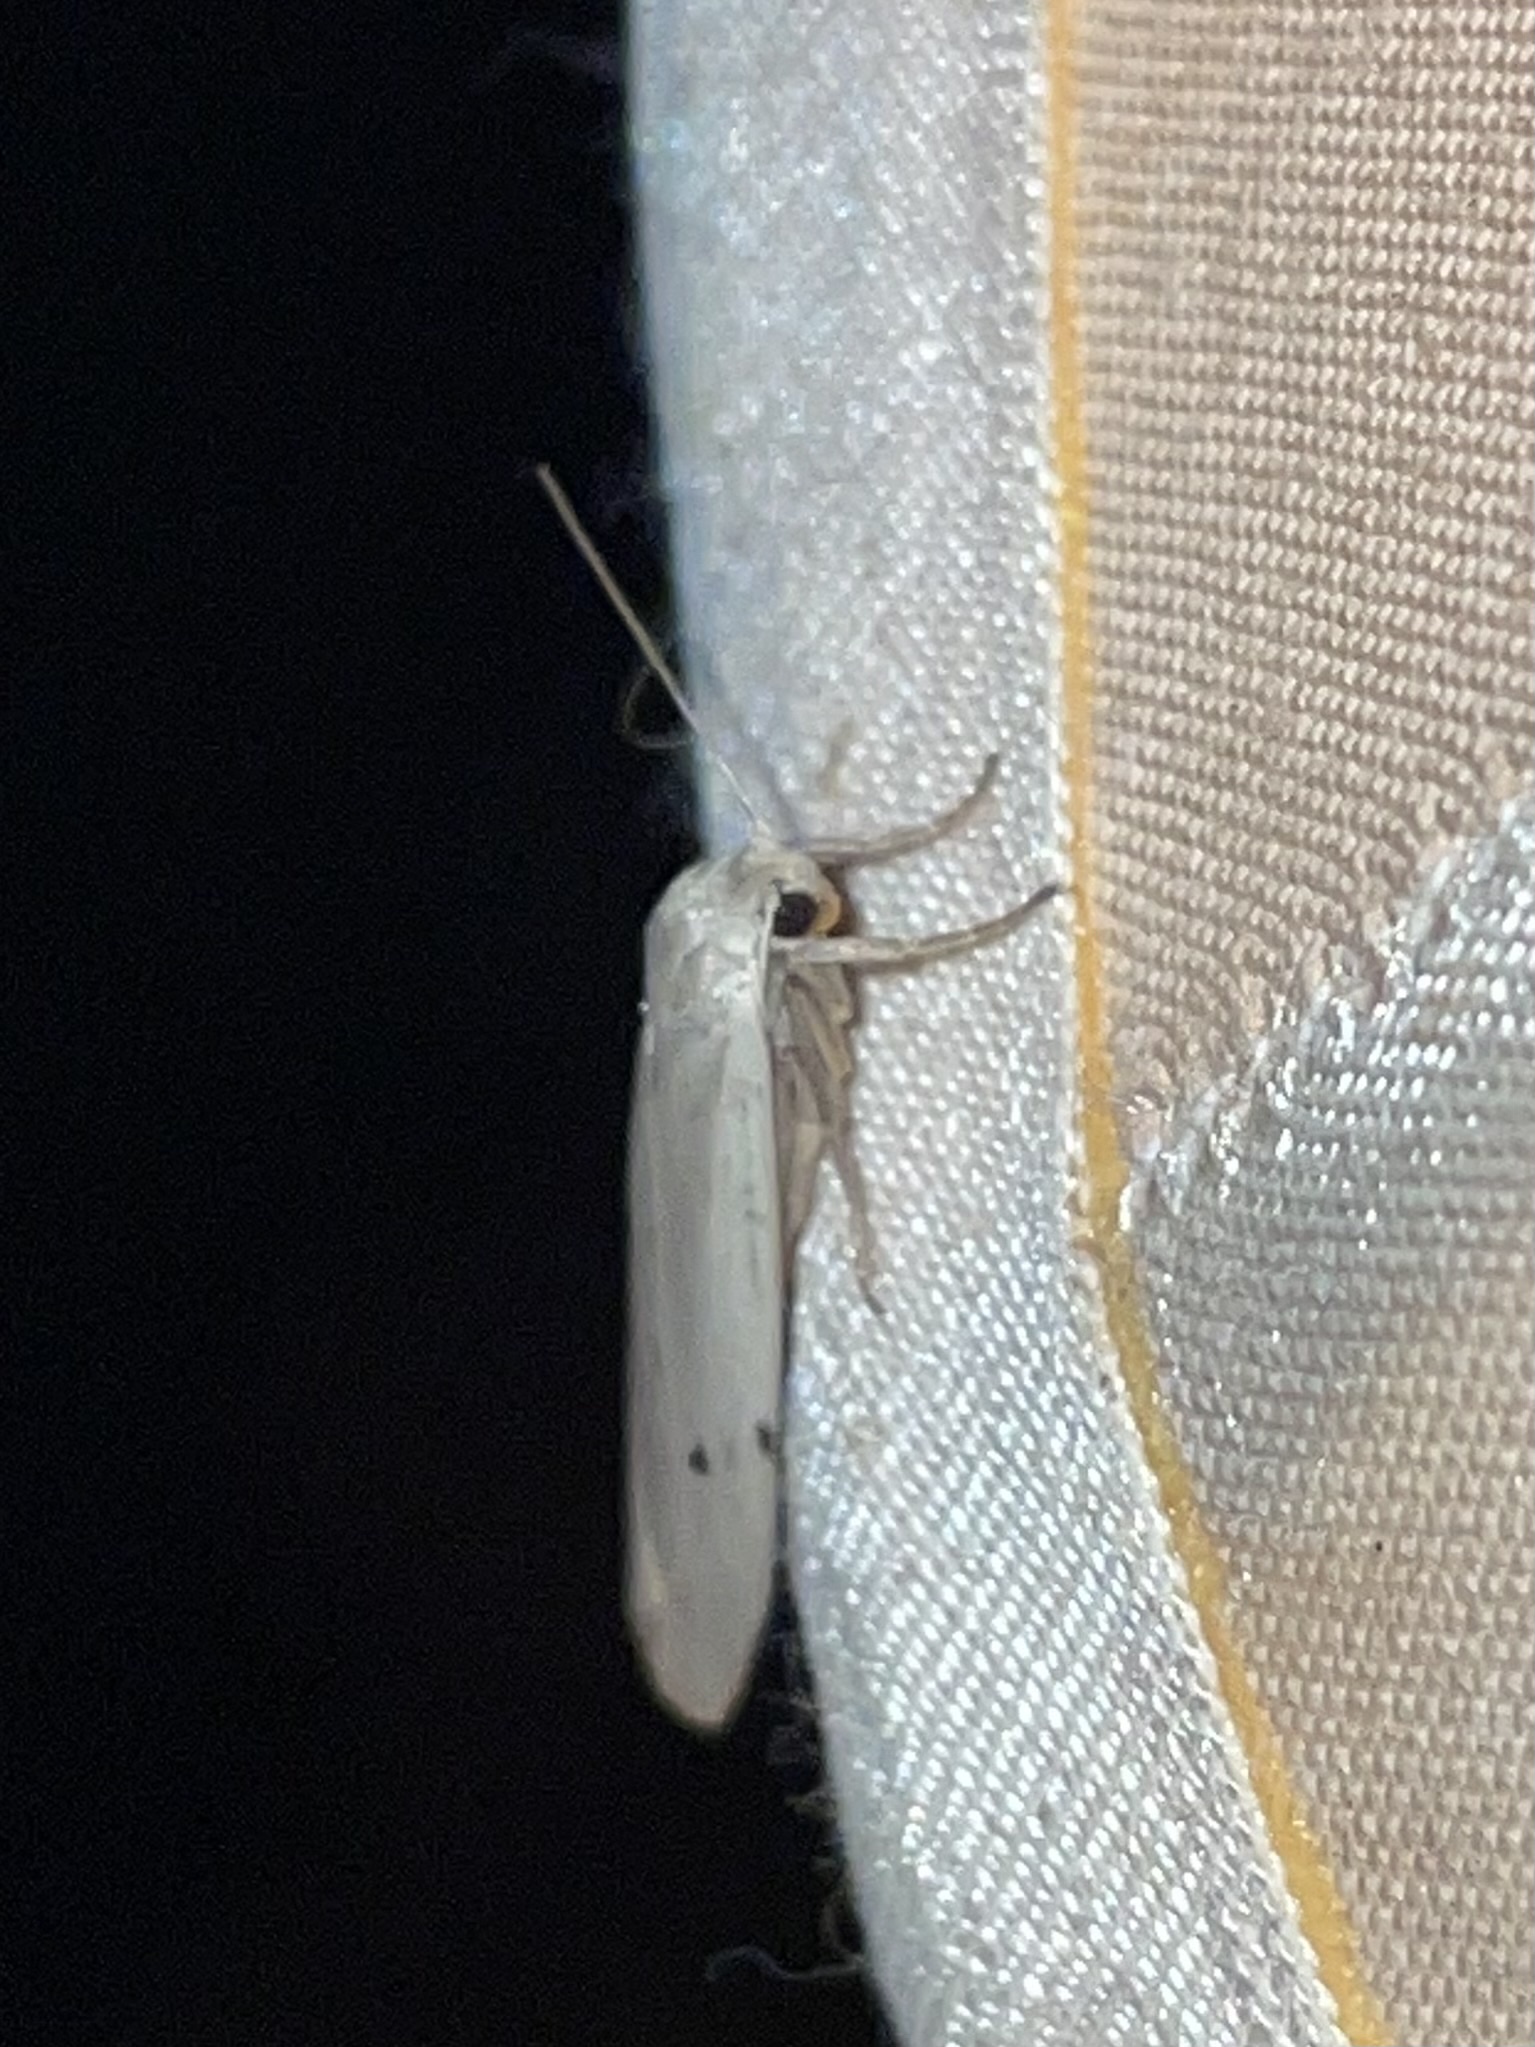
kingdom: Animalia
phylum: Arthropoda
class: Insecta
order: Lepidoptera
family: Erebidae
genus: Pelosia
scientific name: Pelosia muscerda
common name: Dotted footman
